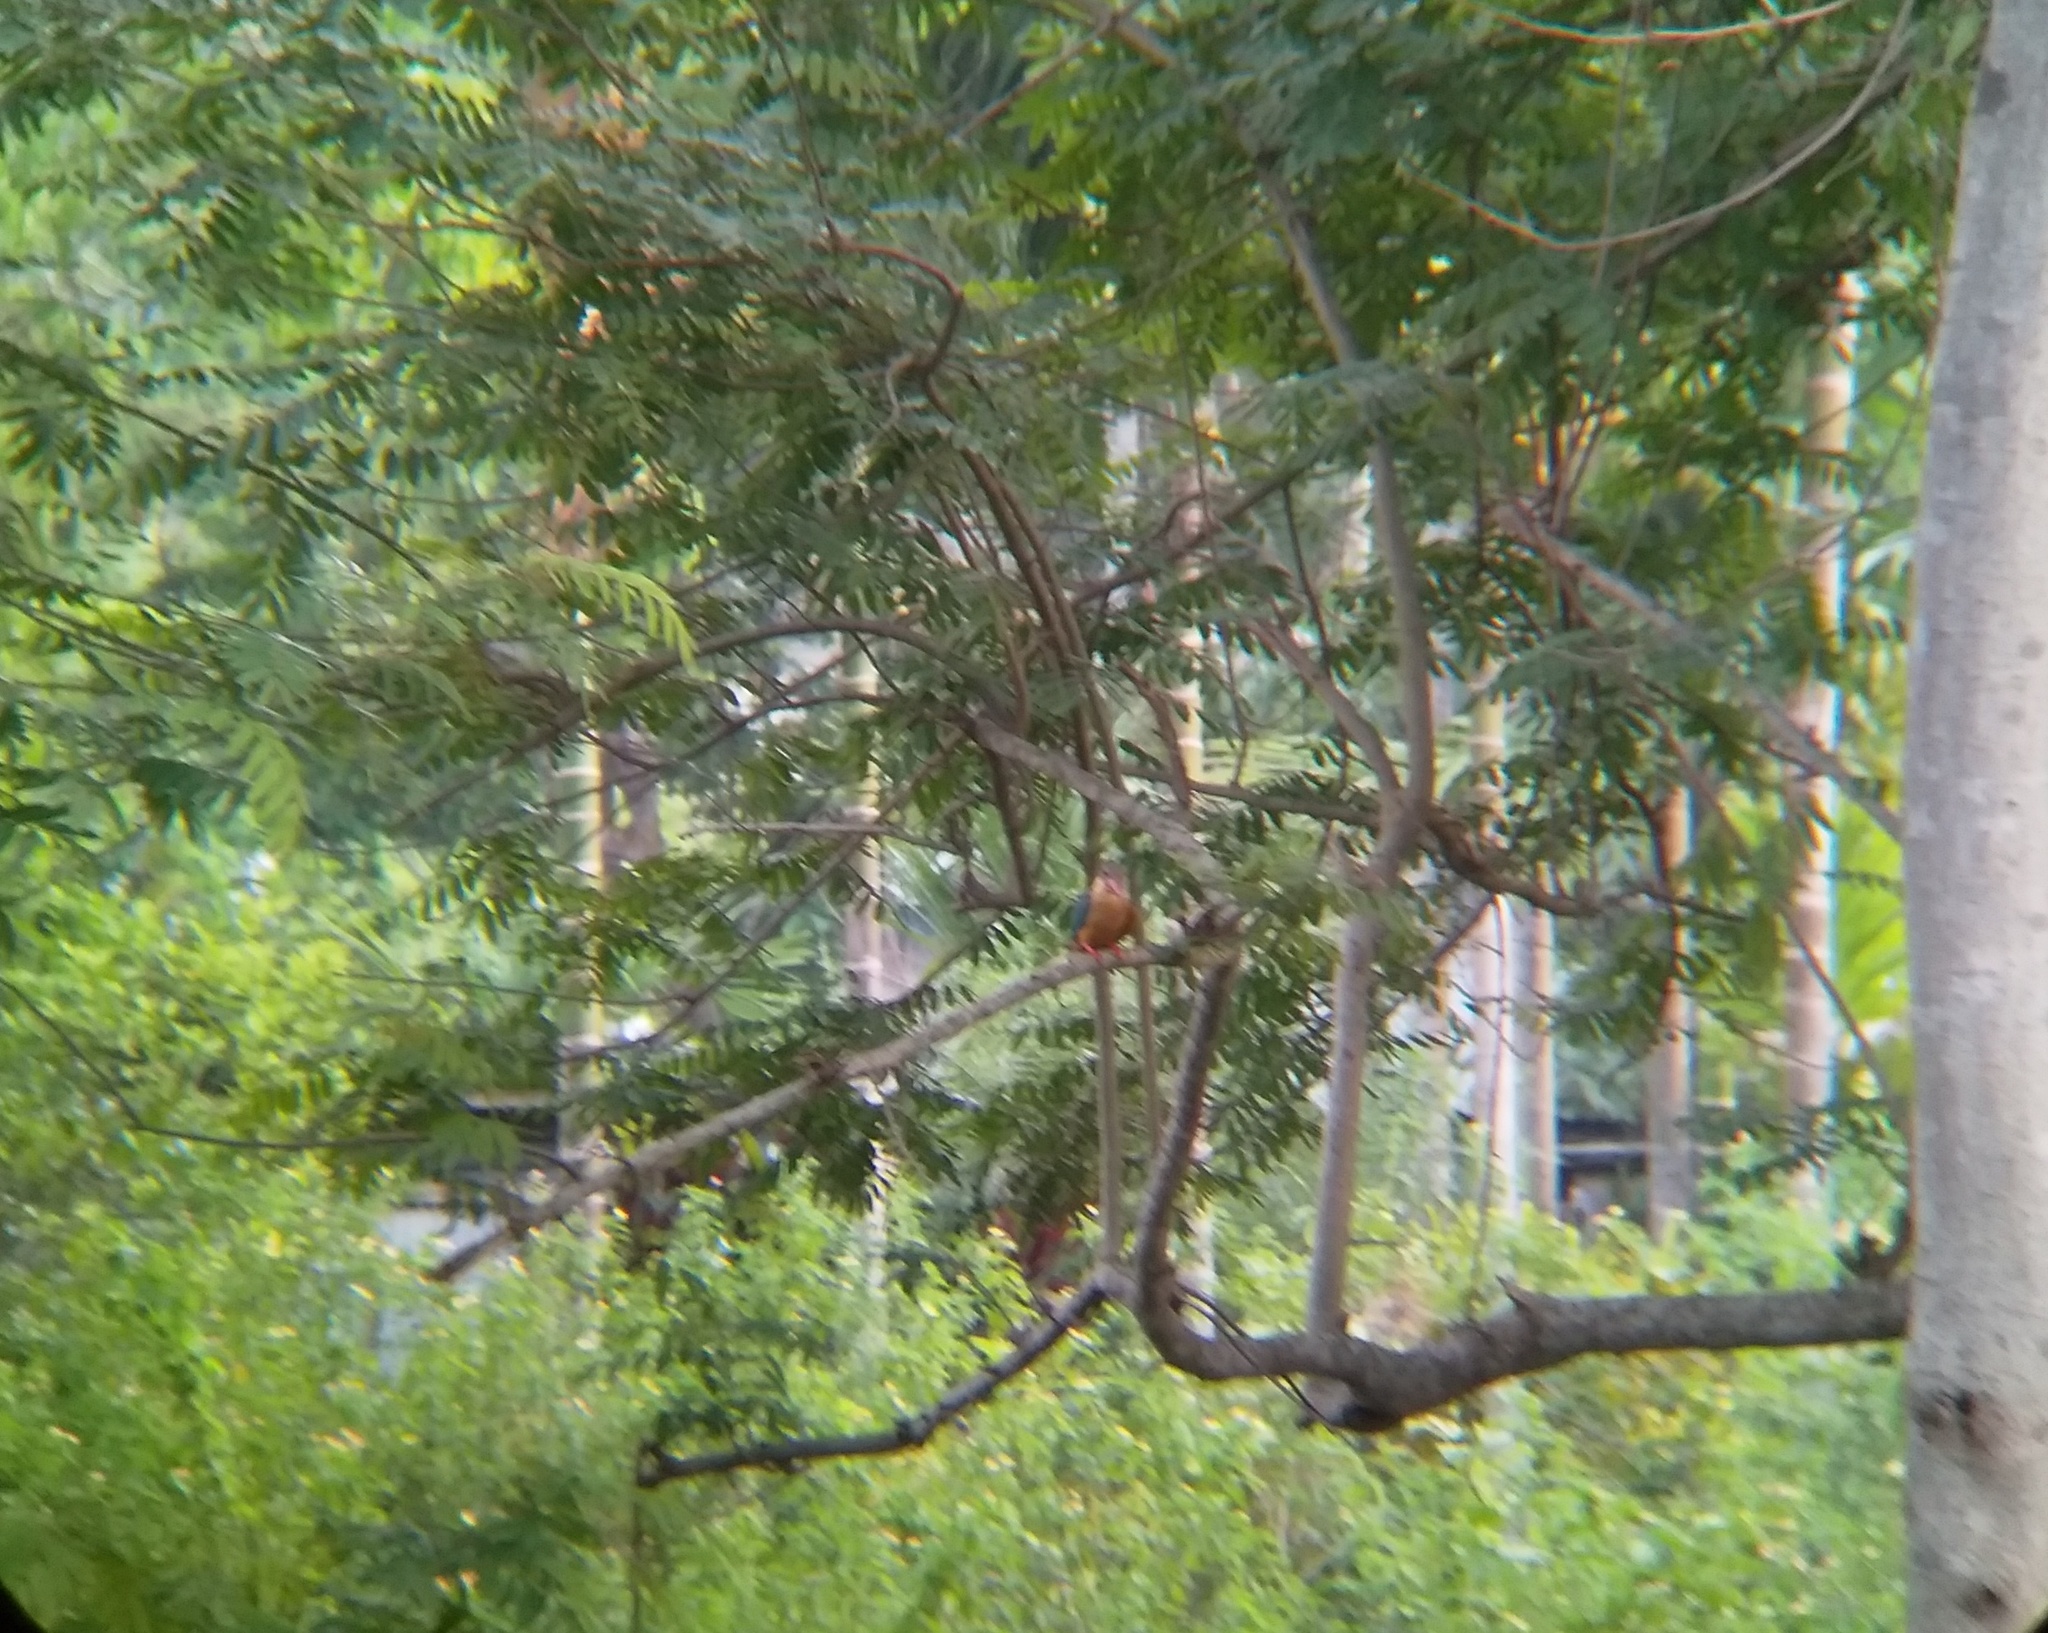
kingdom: Animalia
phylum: Chordata
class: Aves
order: Coraciiformes
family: Alcedinidae
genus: Pelargopsis
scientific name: Pelargopsis capensis
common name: Stork-billed kingfisher
